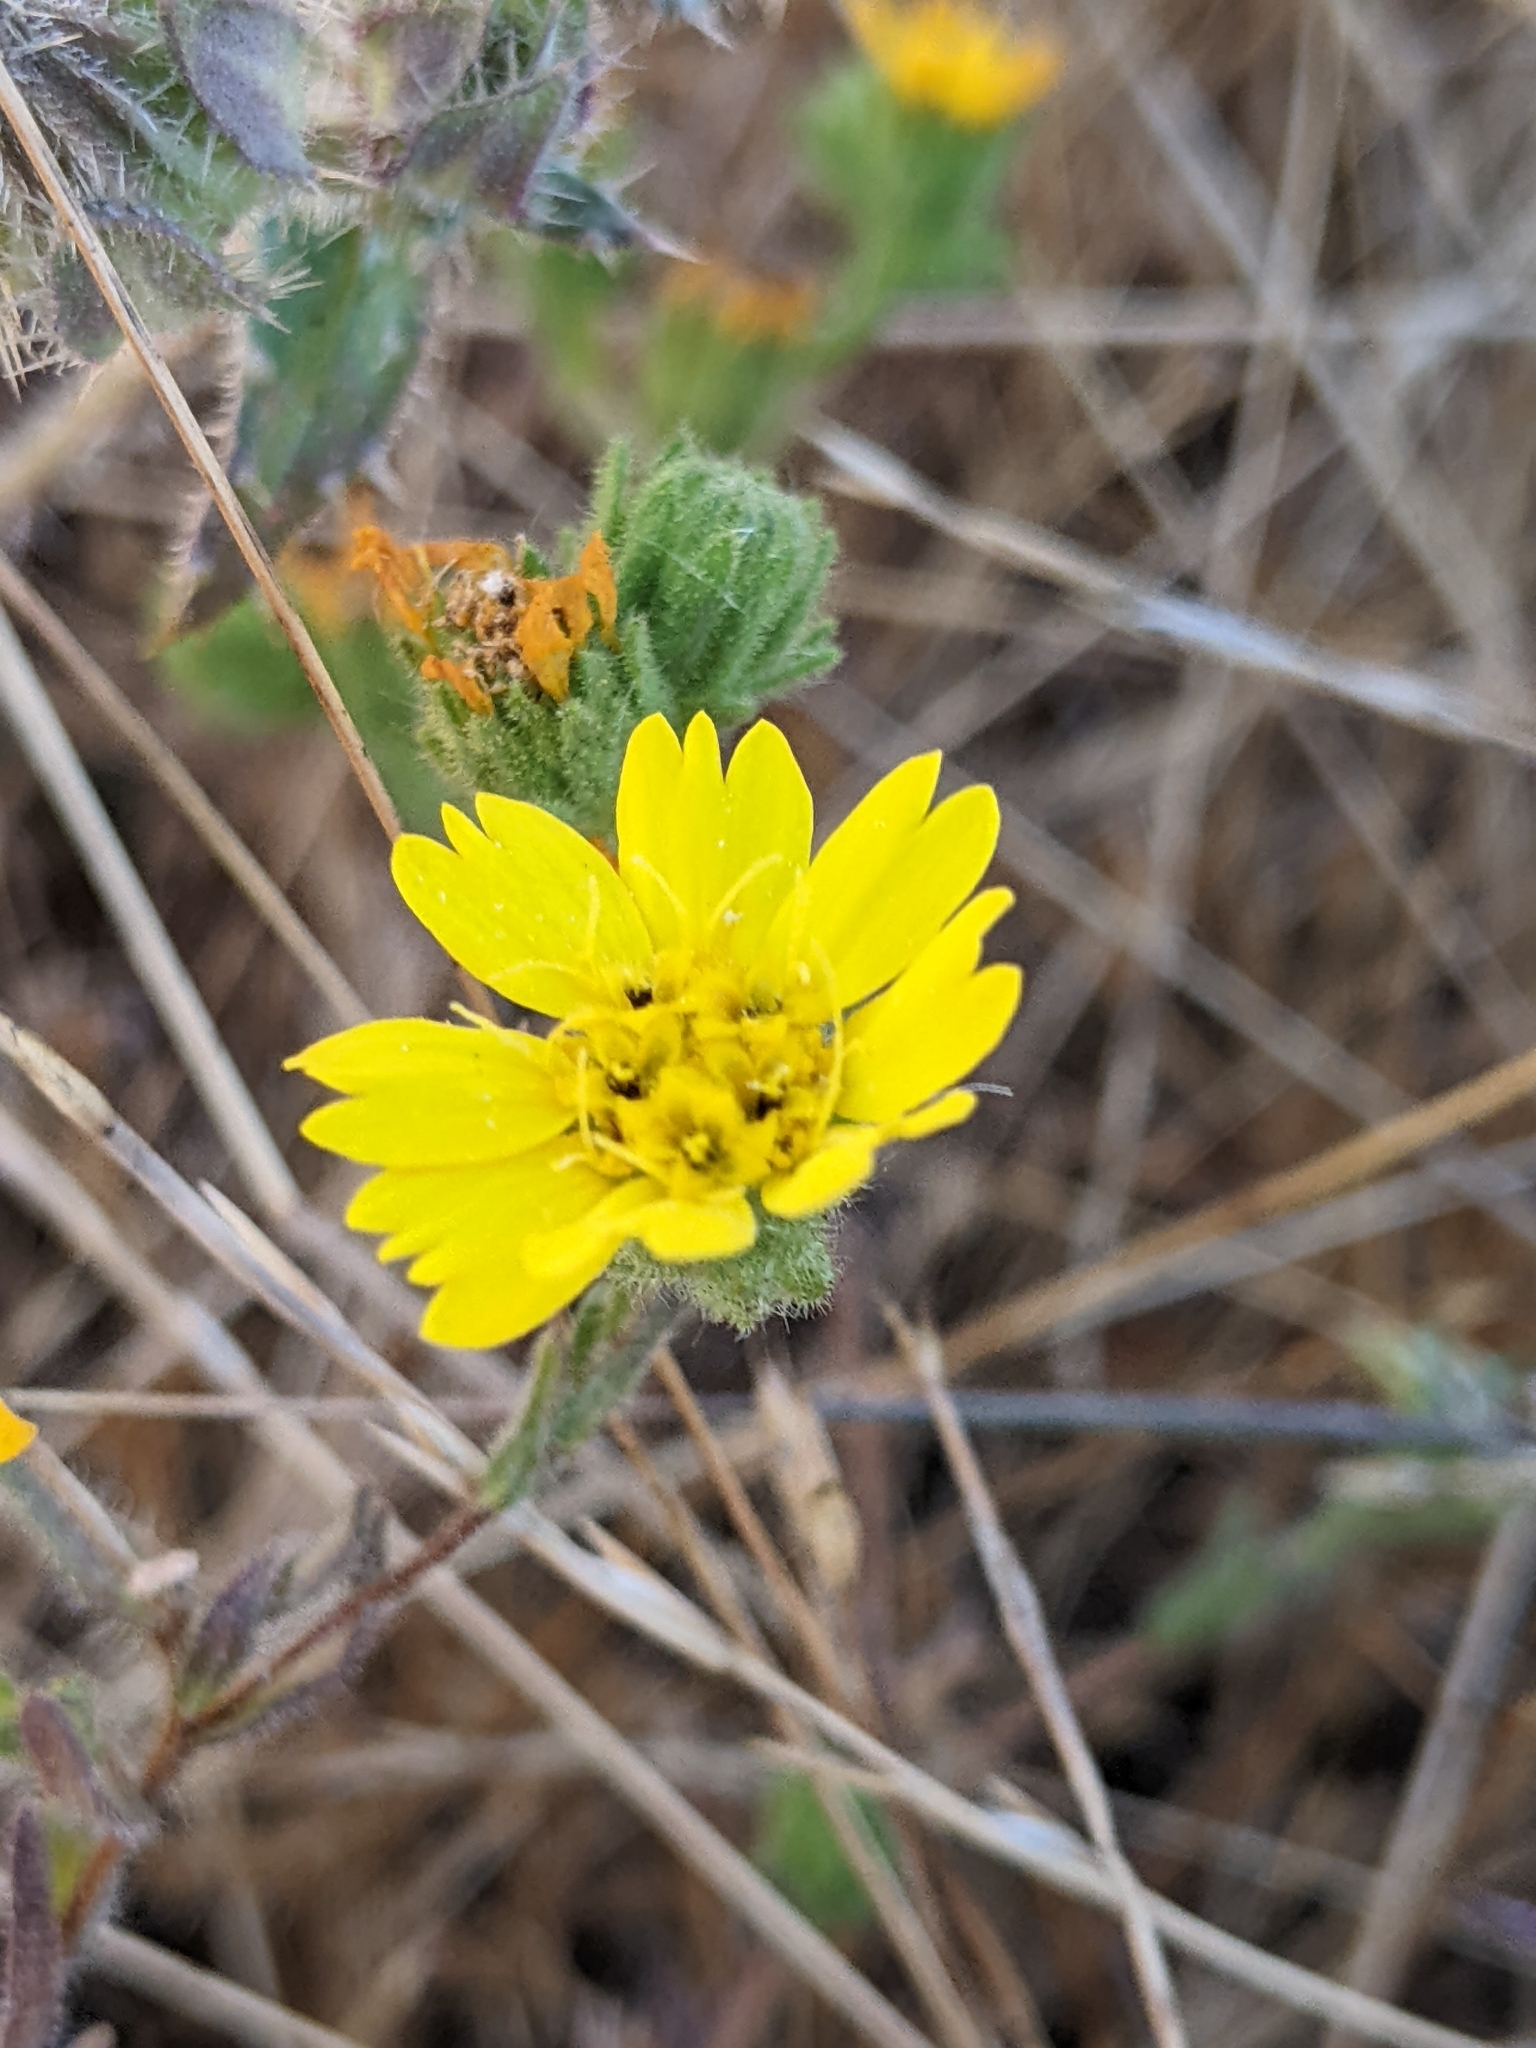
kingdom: Plantae
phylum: Tracheophyta
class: Magnoliopsida
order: Asterales
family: Asteraceae
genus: Deinandra
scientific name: Deinandra corymbosa
